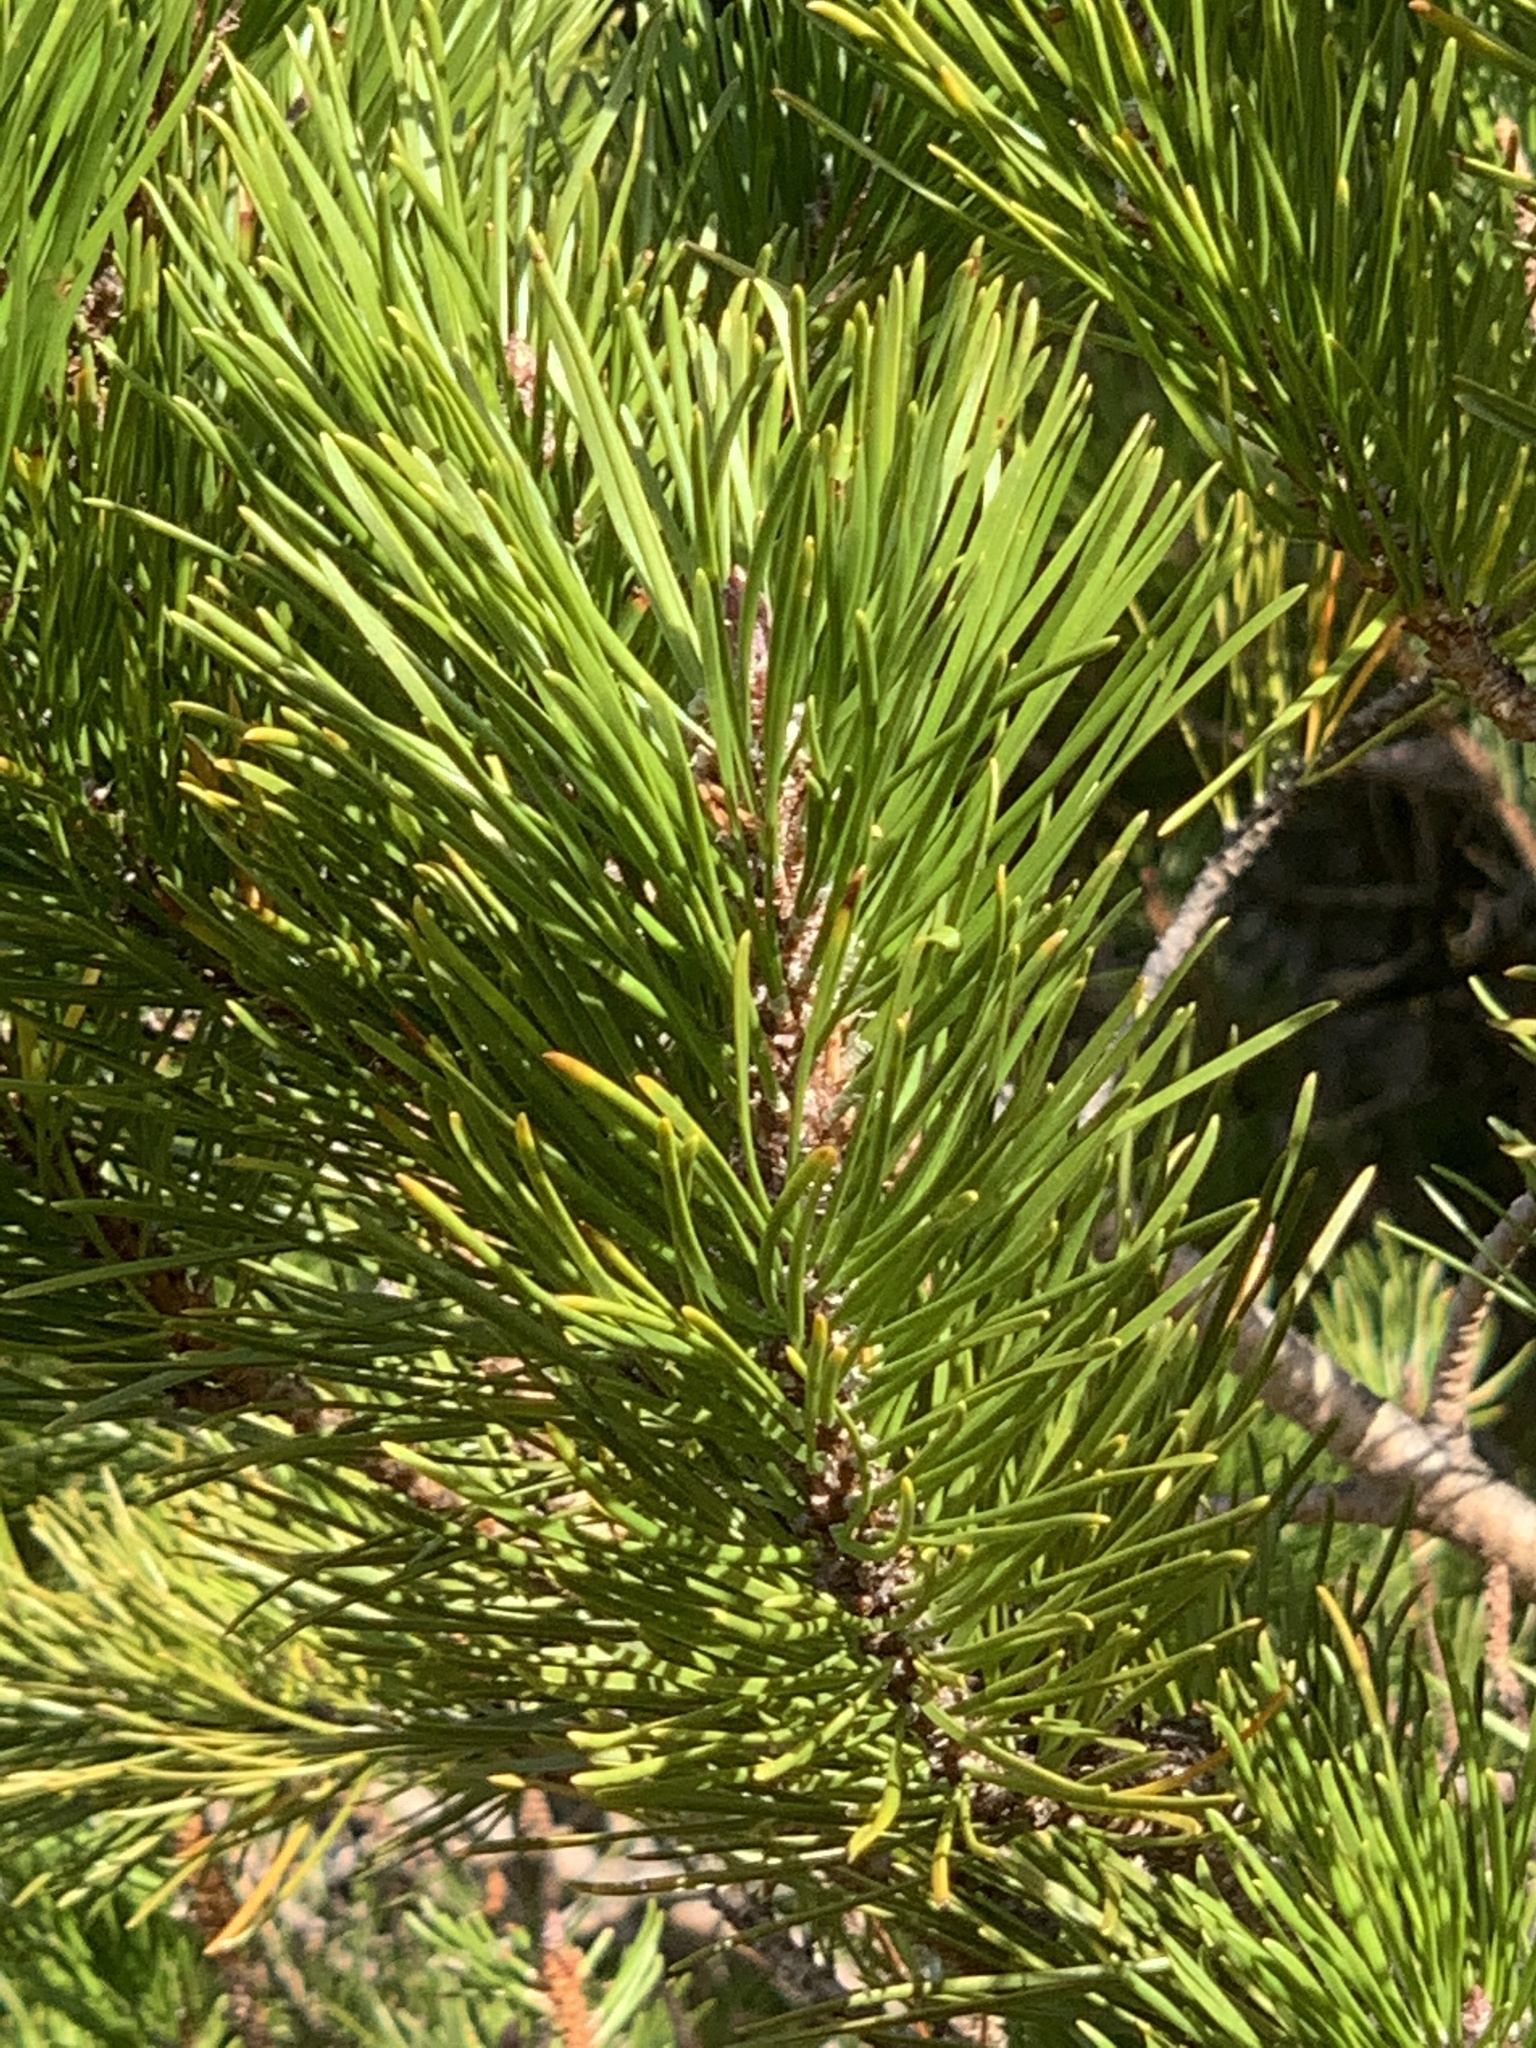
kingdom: Plantae
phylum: Tracheophyta
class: Pinopsida
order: Pinales
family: Pinaceae
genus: Pinus
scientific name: Pinus contorta
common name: Lodgepole pine
